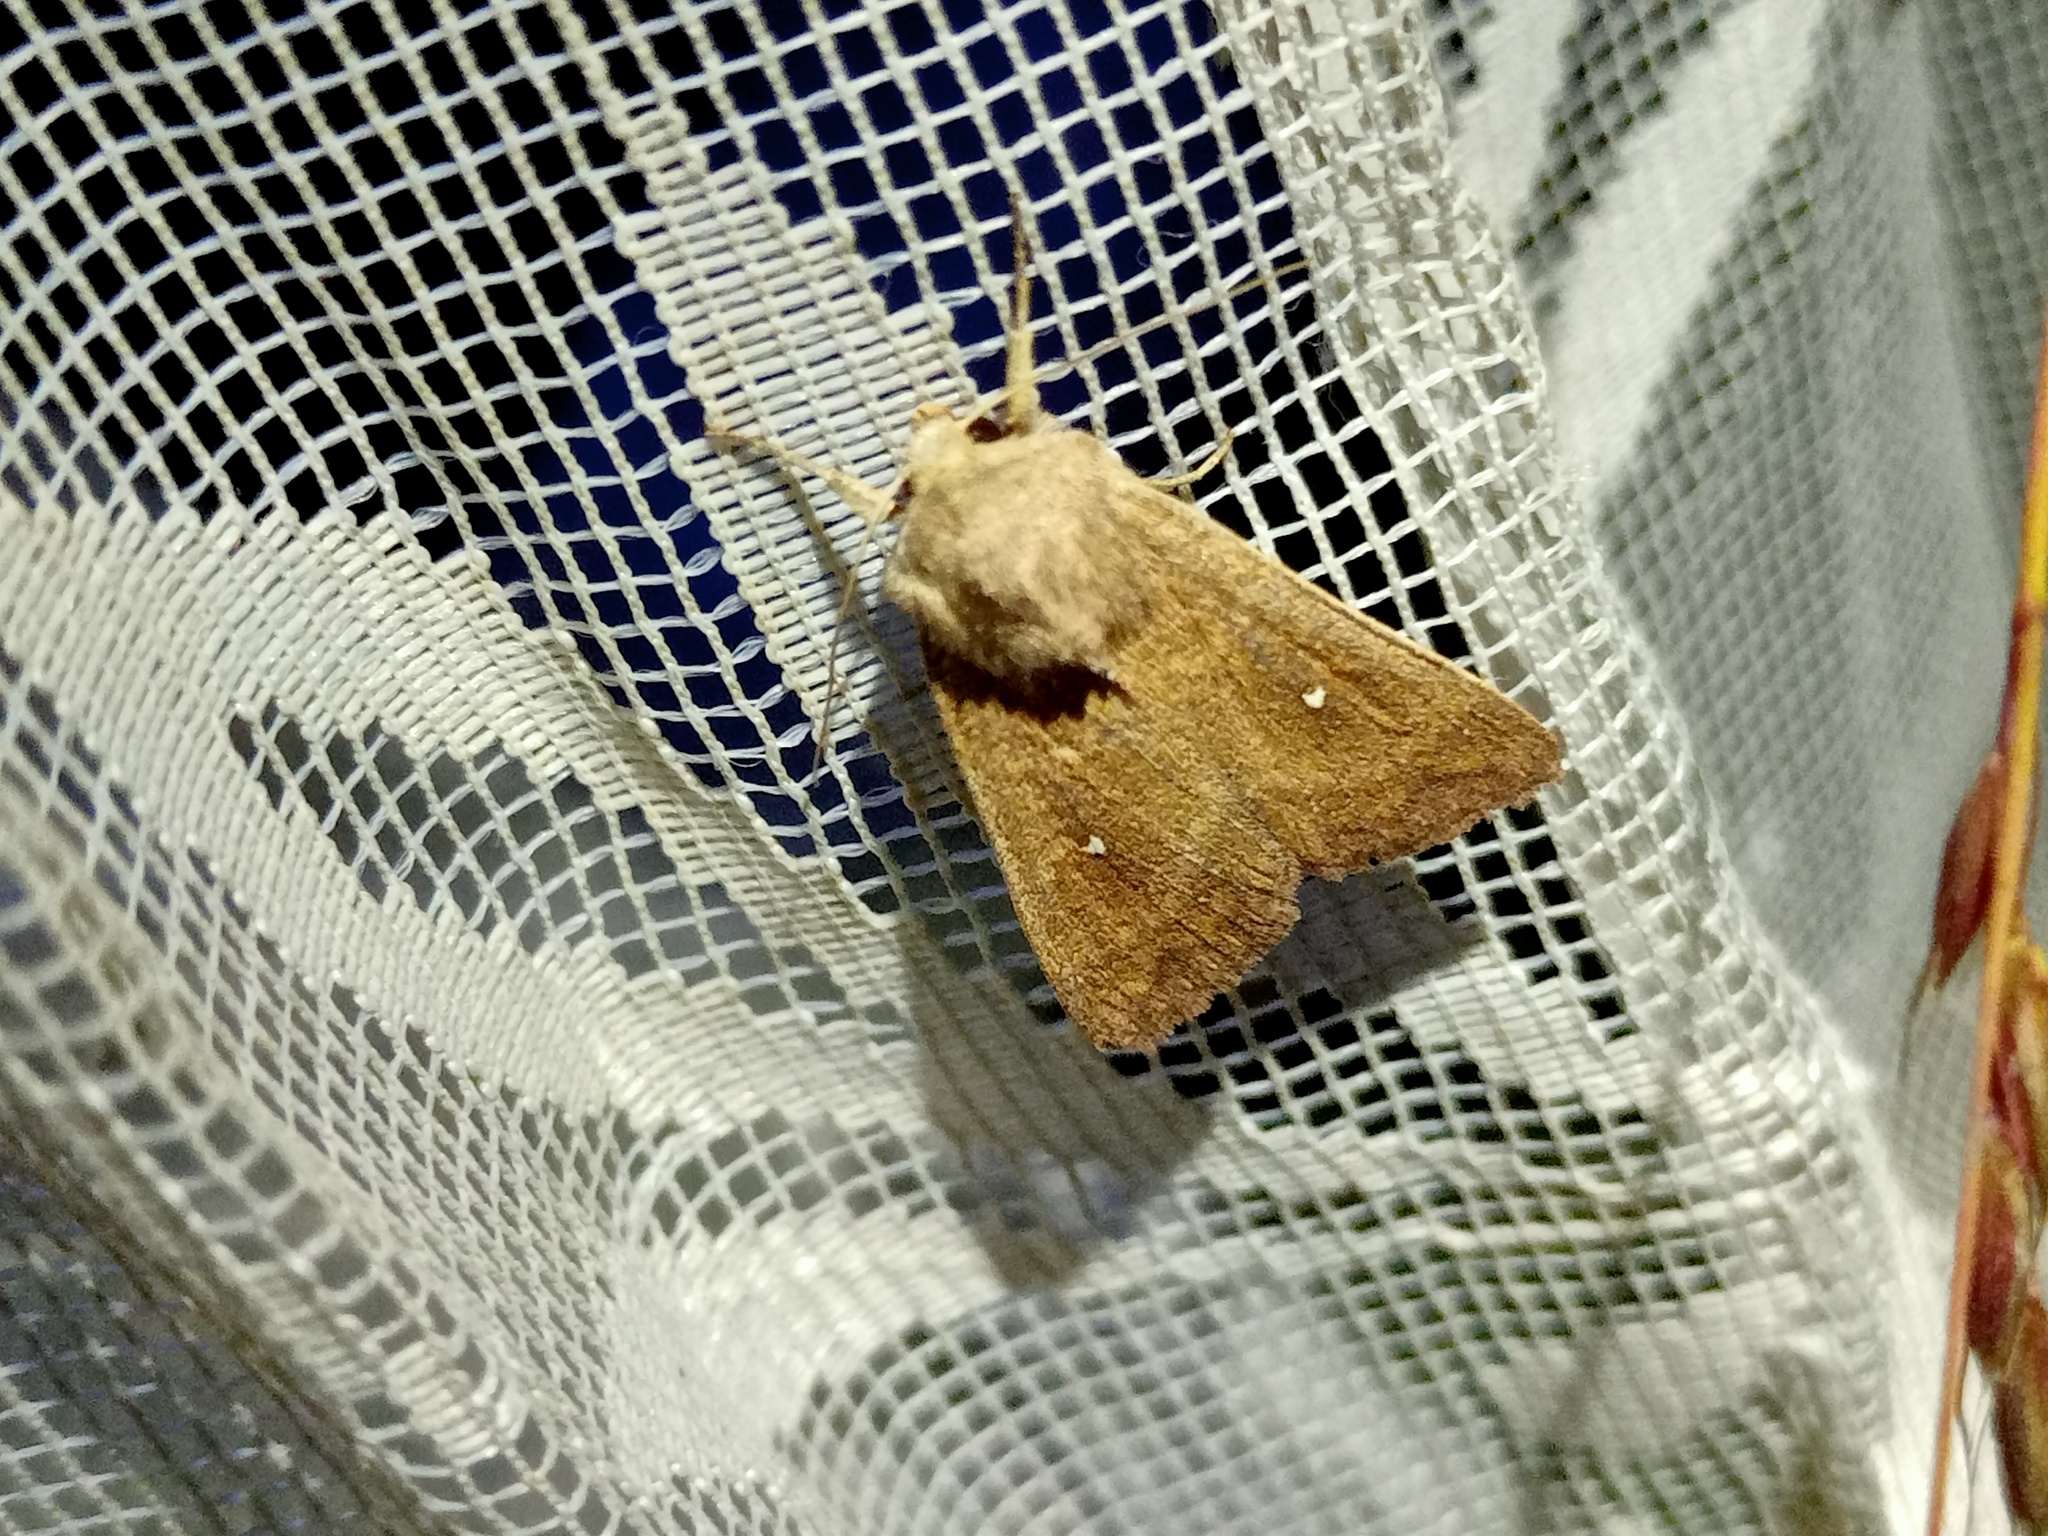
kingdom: Animalia
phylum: Arthropoda
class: Insecta
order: Lepidoptera
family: Noctuidae
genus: Mythimna
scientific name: Mythimna albipuncta
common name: White-point
